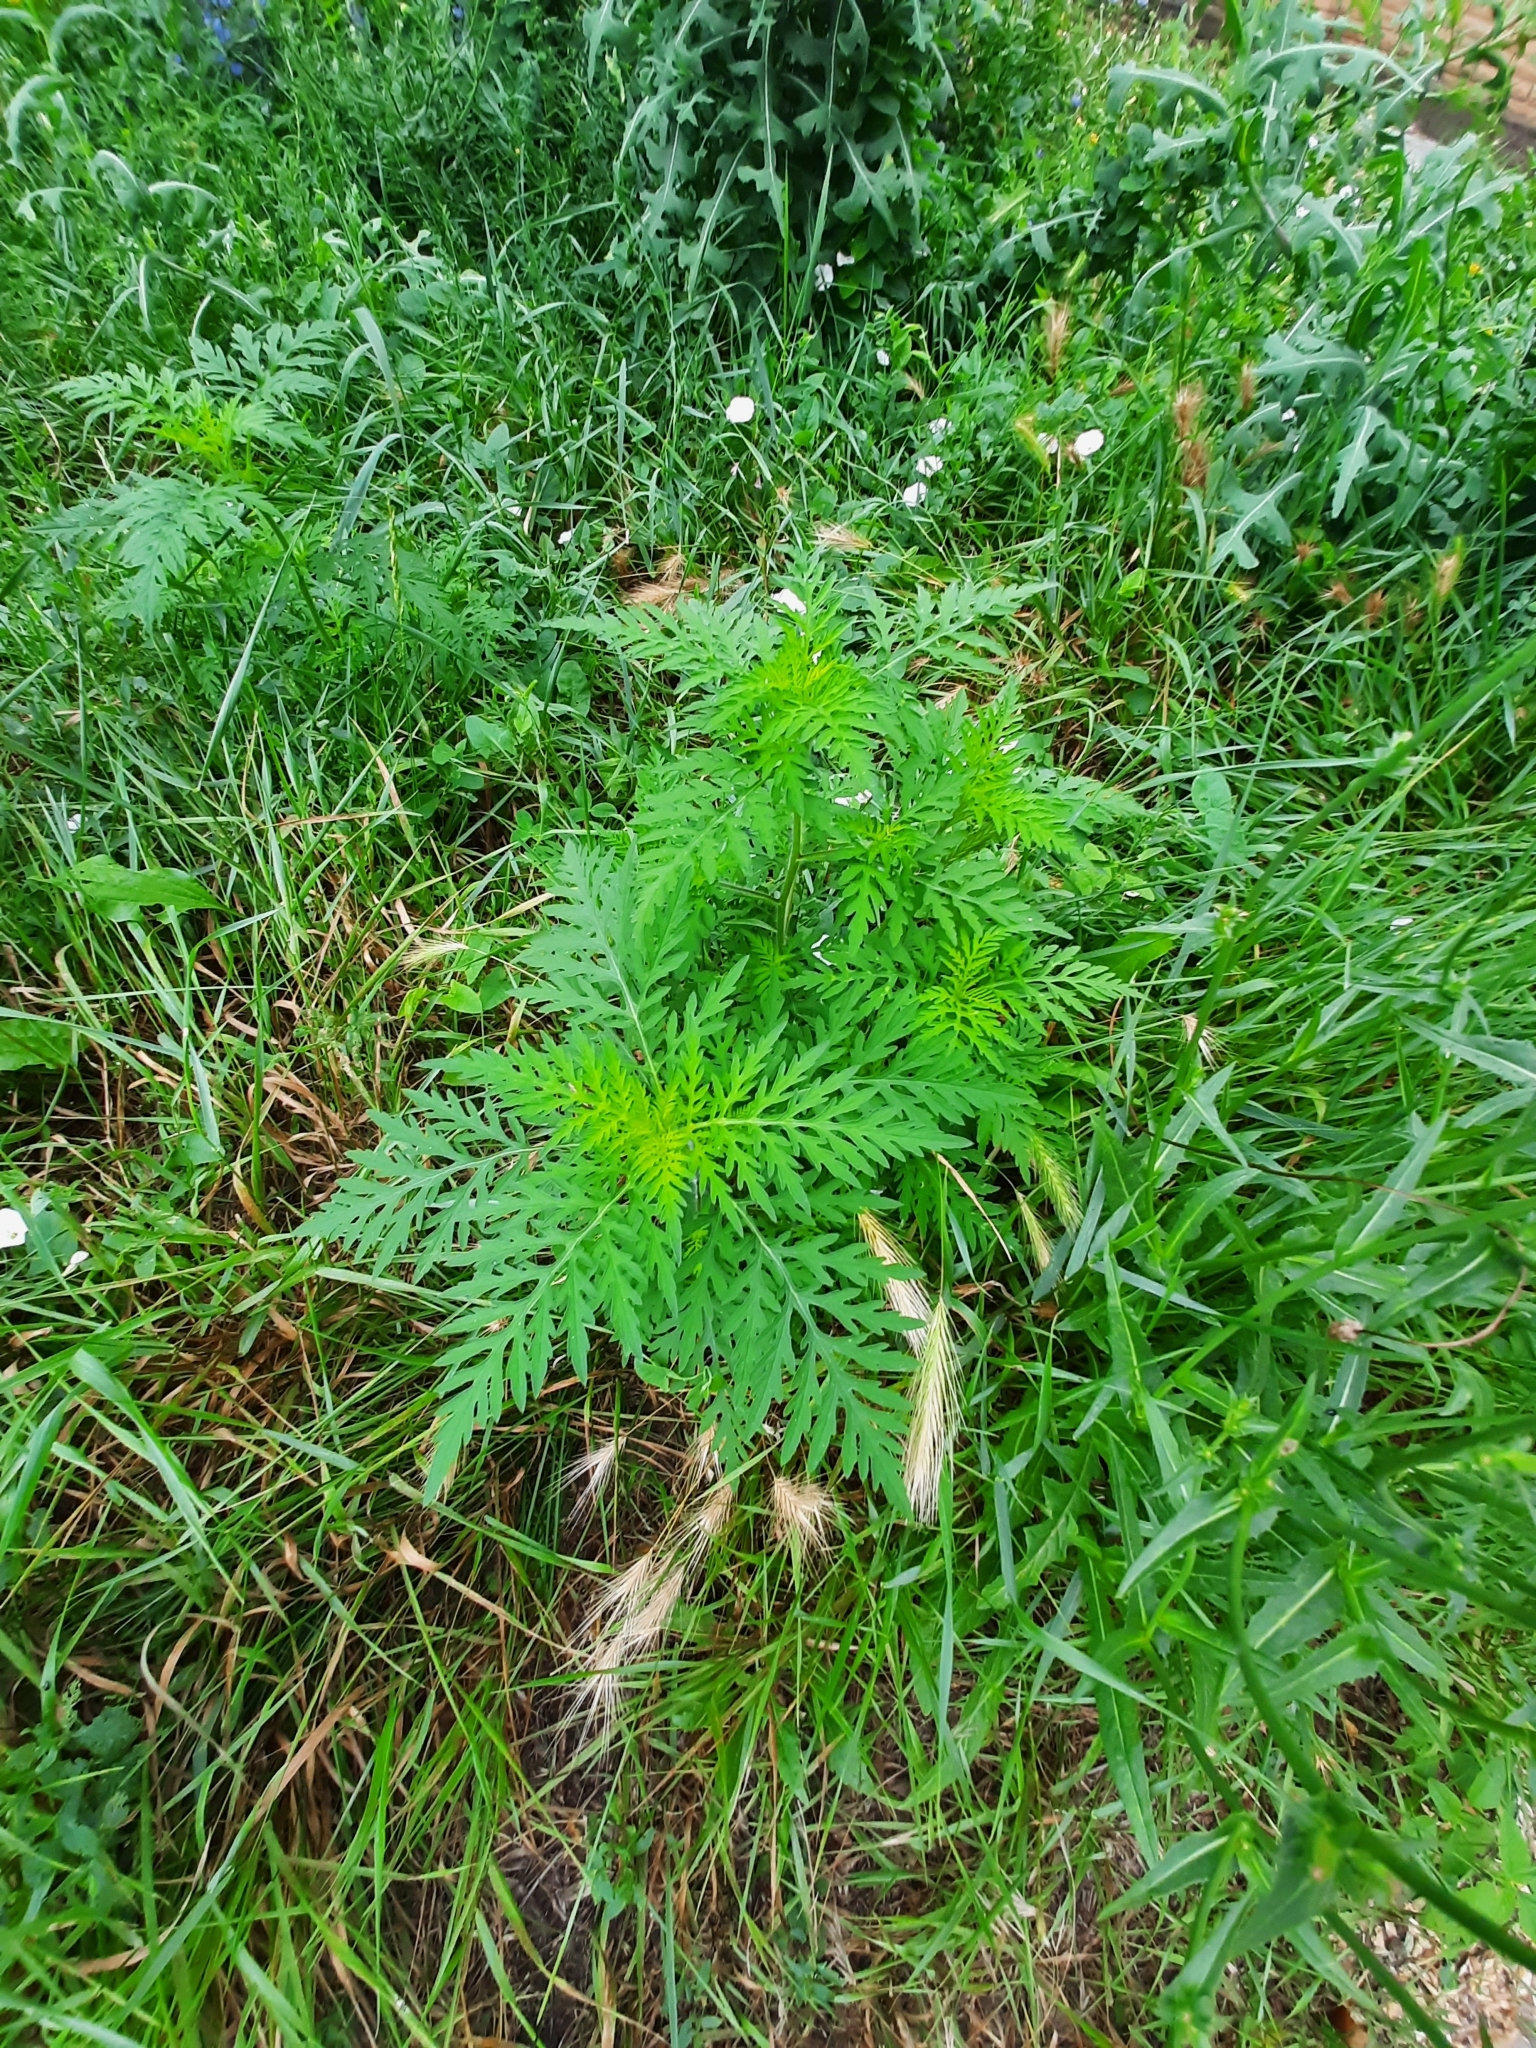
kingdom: Plantae
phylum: Tracheophyta
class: Magnoliopsida
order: Asterales
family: Asteraceae
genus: Ambrosia
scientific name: Ambrosia artemisiifolia
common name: Annual ragweed
